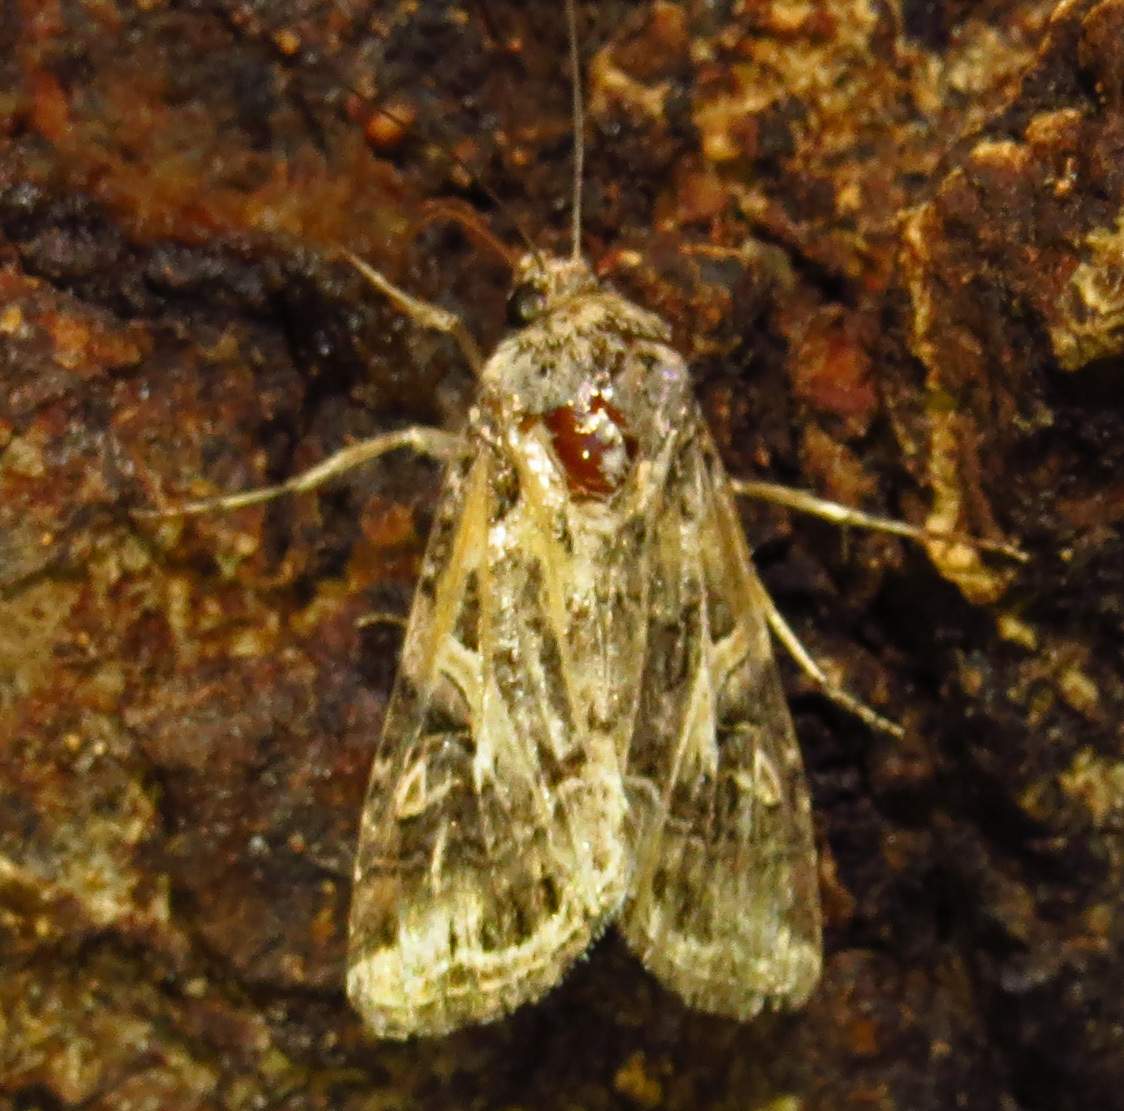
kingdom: Animalia
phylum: Arthropoda
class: Insecta
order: Lepidoptera
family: Noctuidae
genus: Spodoptera
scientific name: Spodoptera ornithogalli
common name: Yellow-striped armyworm
